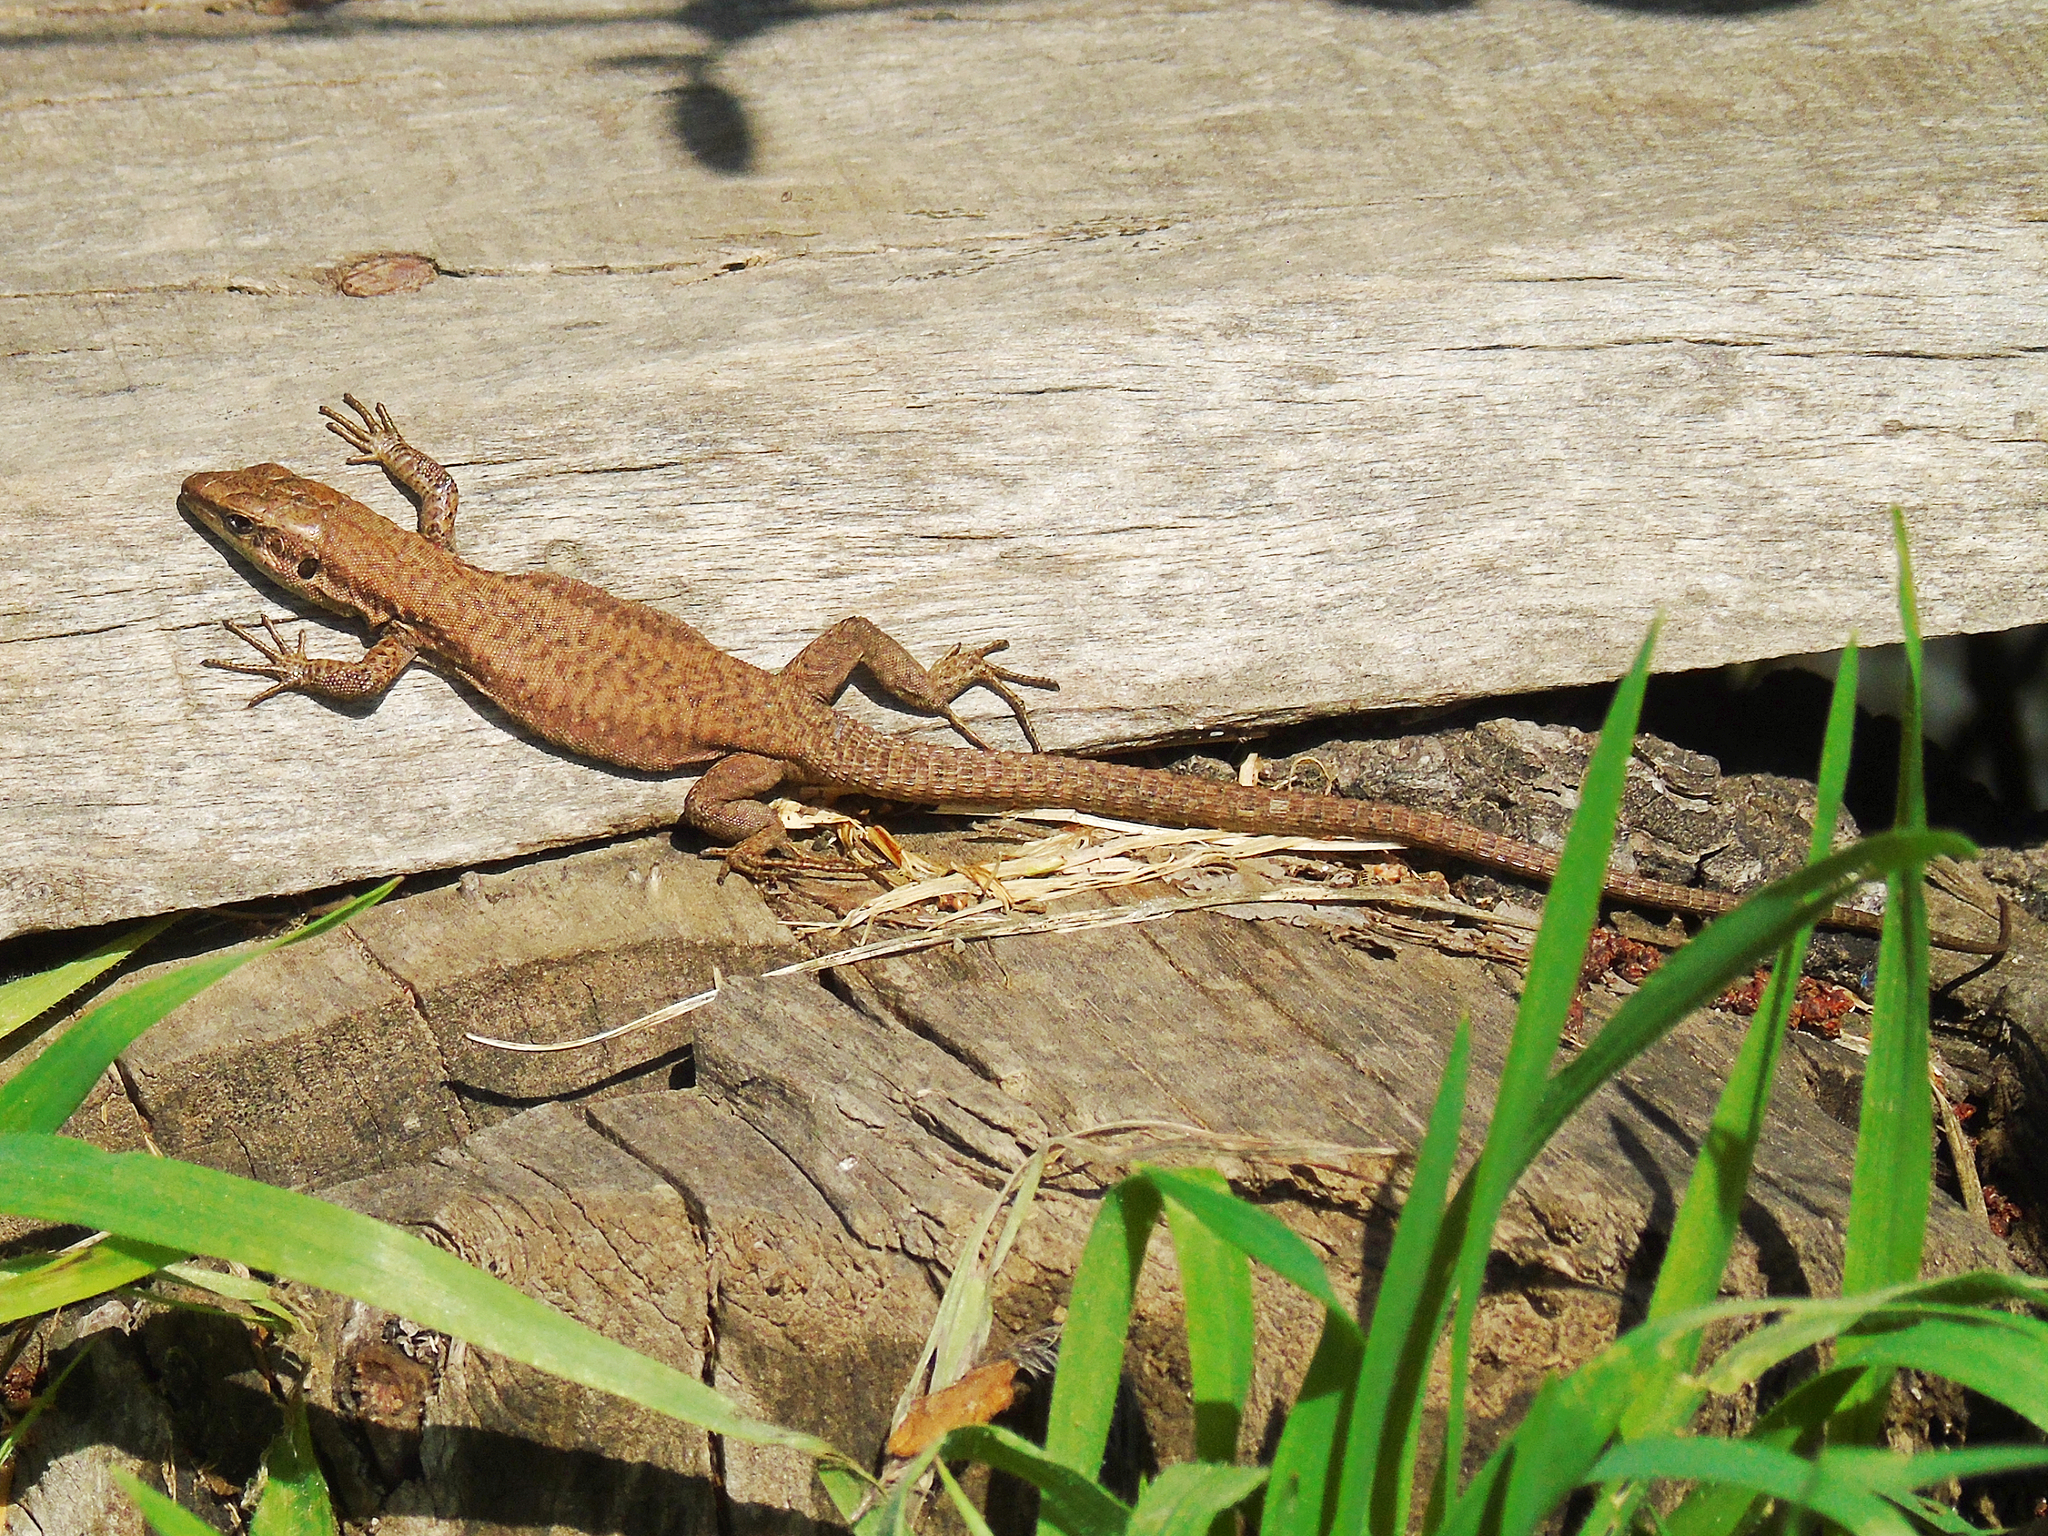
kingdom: Animalia
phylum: Chordata
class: Squamata
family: Lacertidae
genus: Phoenicolacerta
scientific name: Phoenicolacerta laevis
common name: Lebanon lizard
